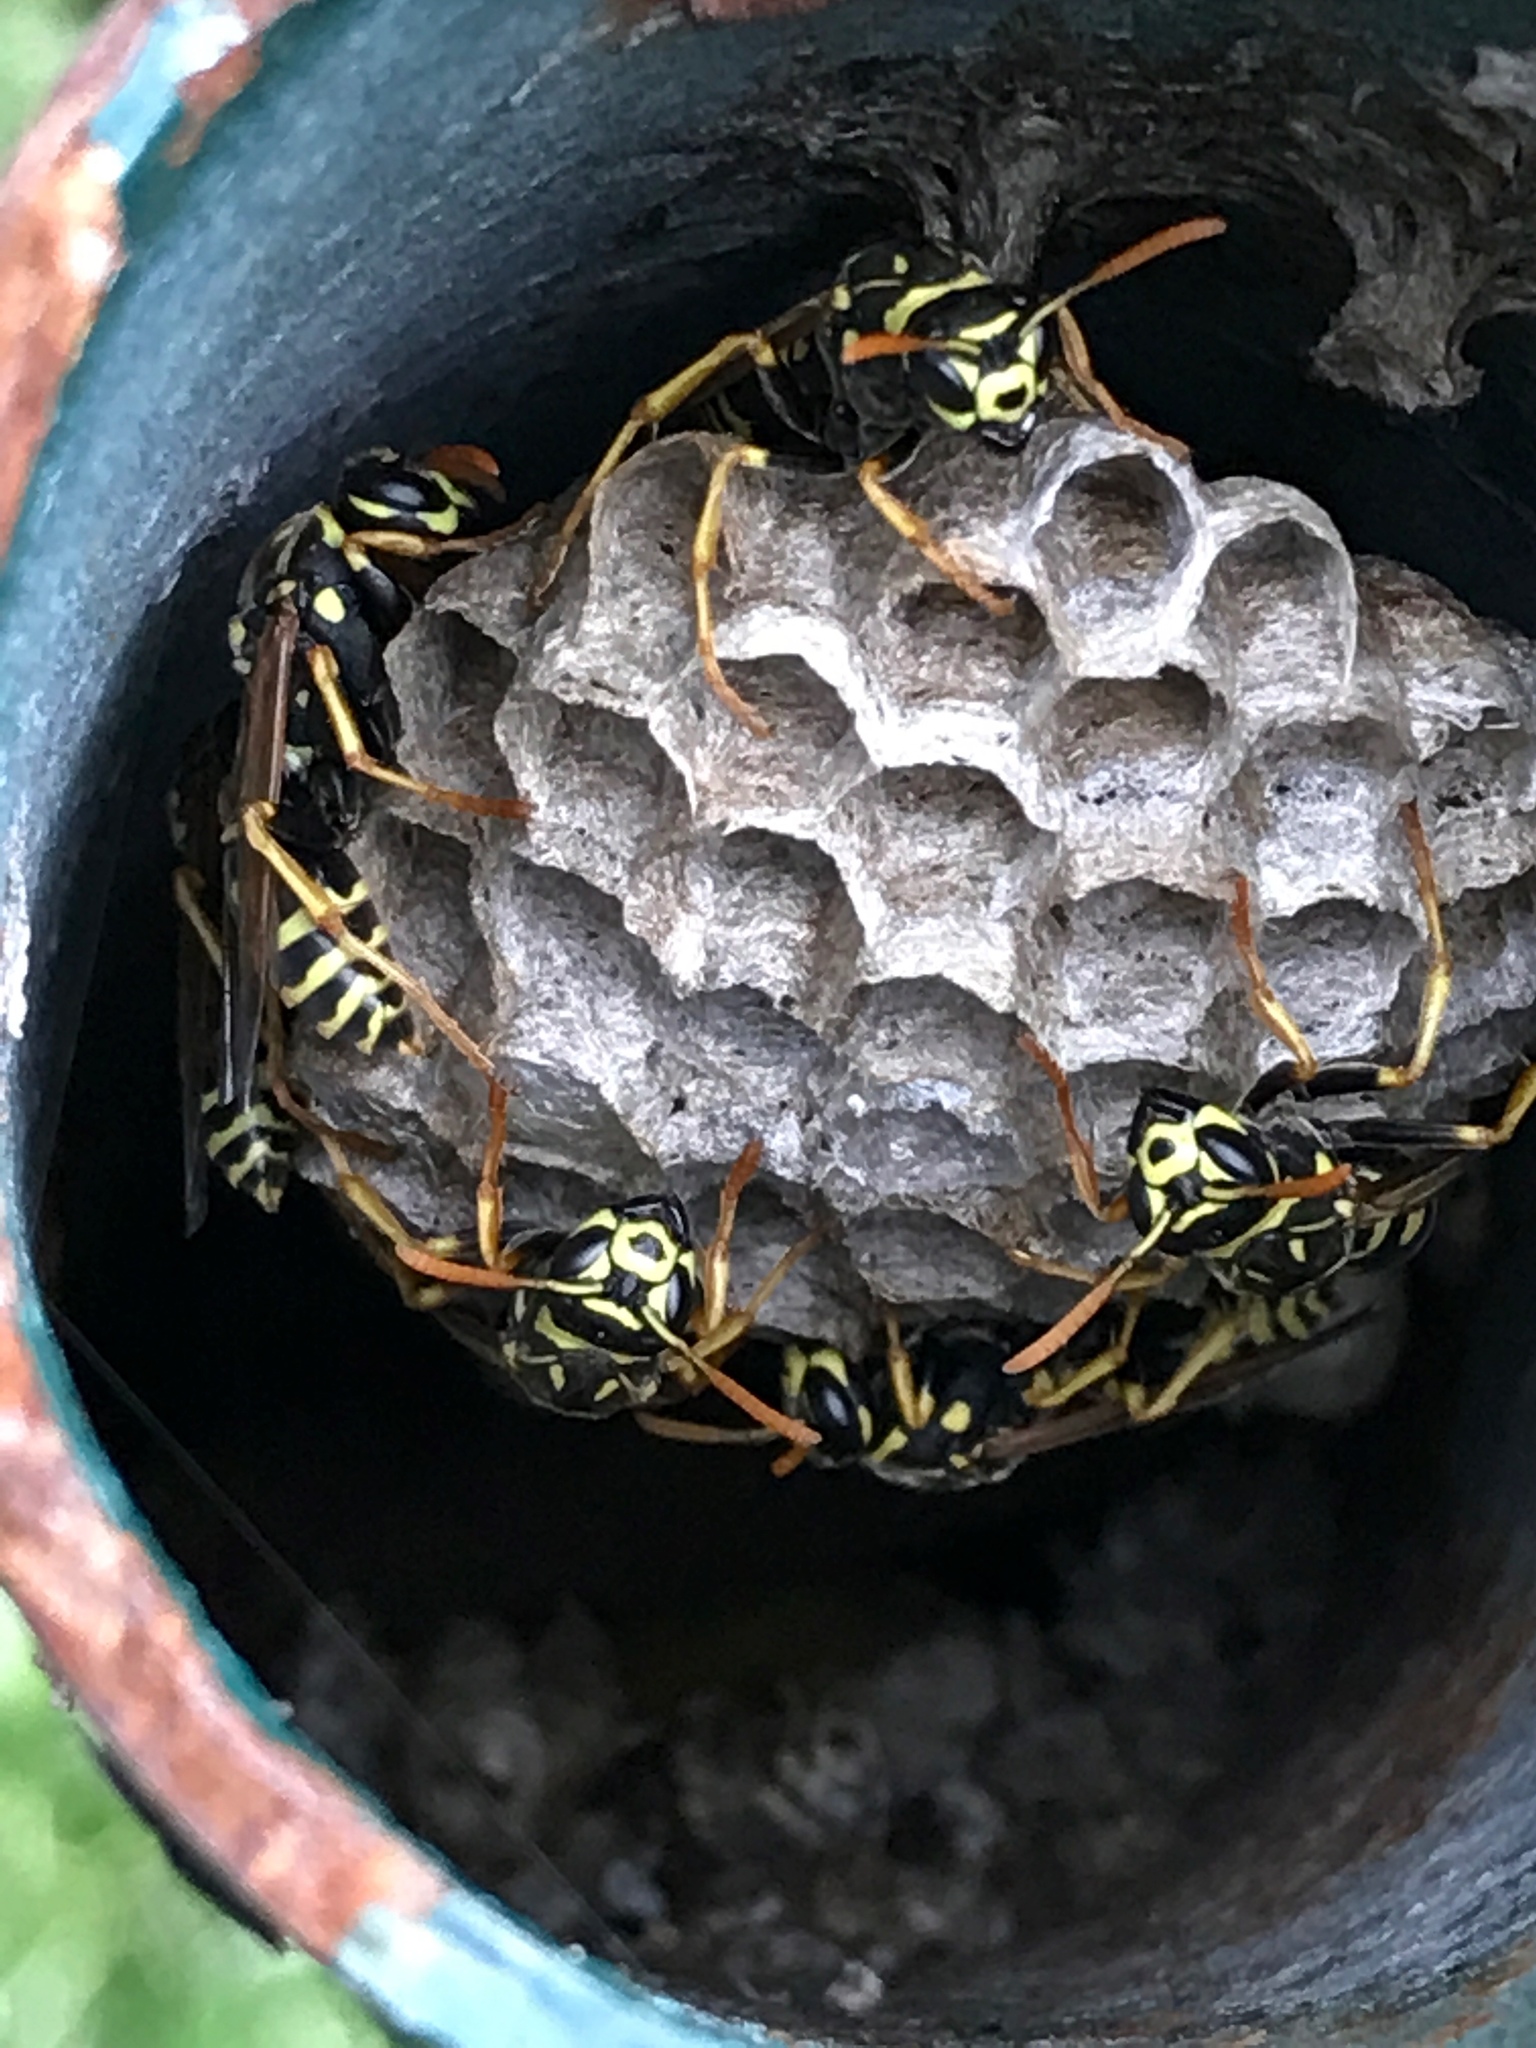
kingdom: Animalia
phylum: Arthropoda
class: Insecta
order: Hymenoptera
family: Eumenidae
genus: Polistes
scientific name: Polistes dominula
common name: Paper wasp
